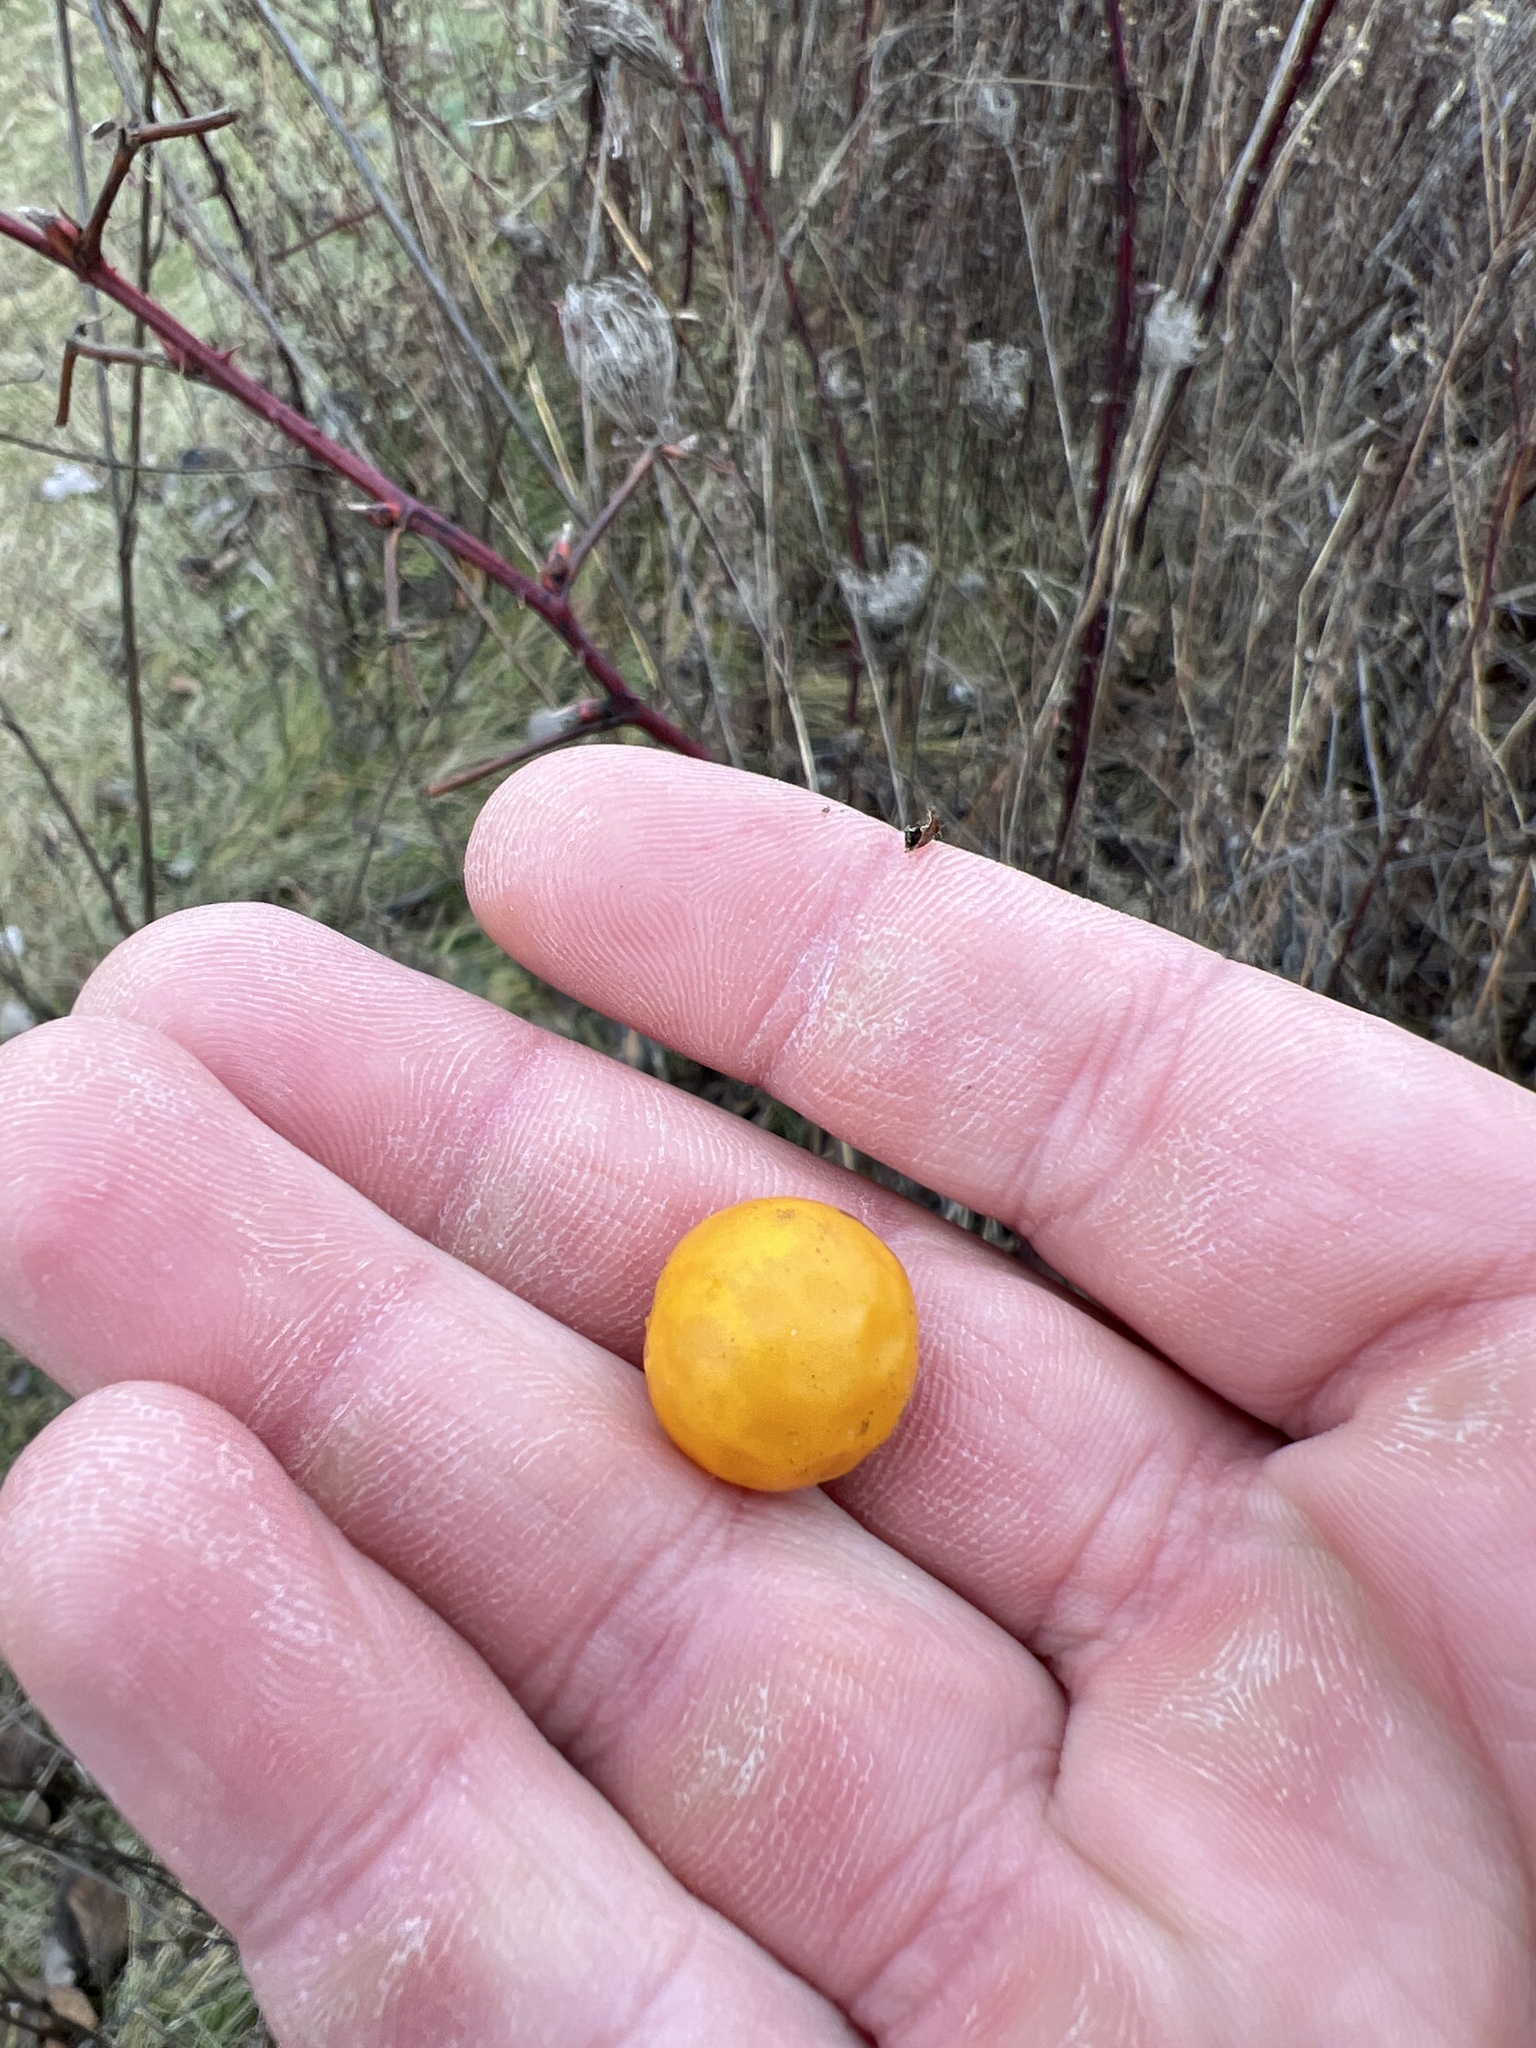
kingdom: Plantae
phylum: Tracheophyta
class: Magnoliopsida
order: Solanales
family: Solanaceae
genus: Solanum
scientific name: Solanum carolinense
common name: Horse-nettle
